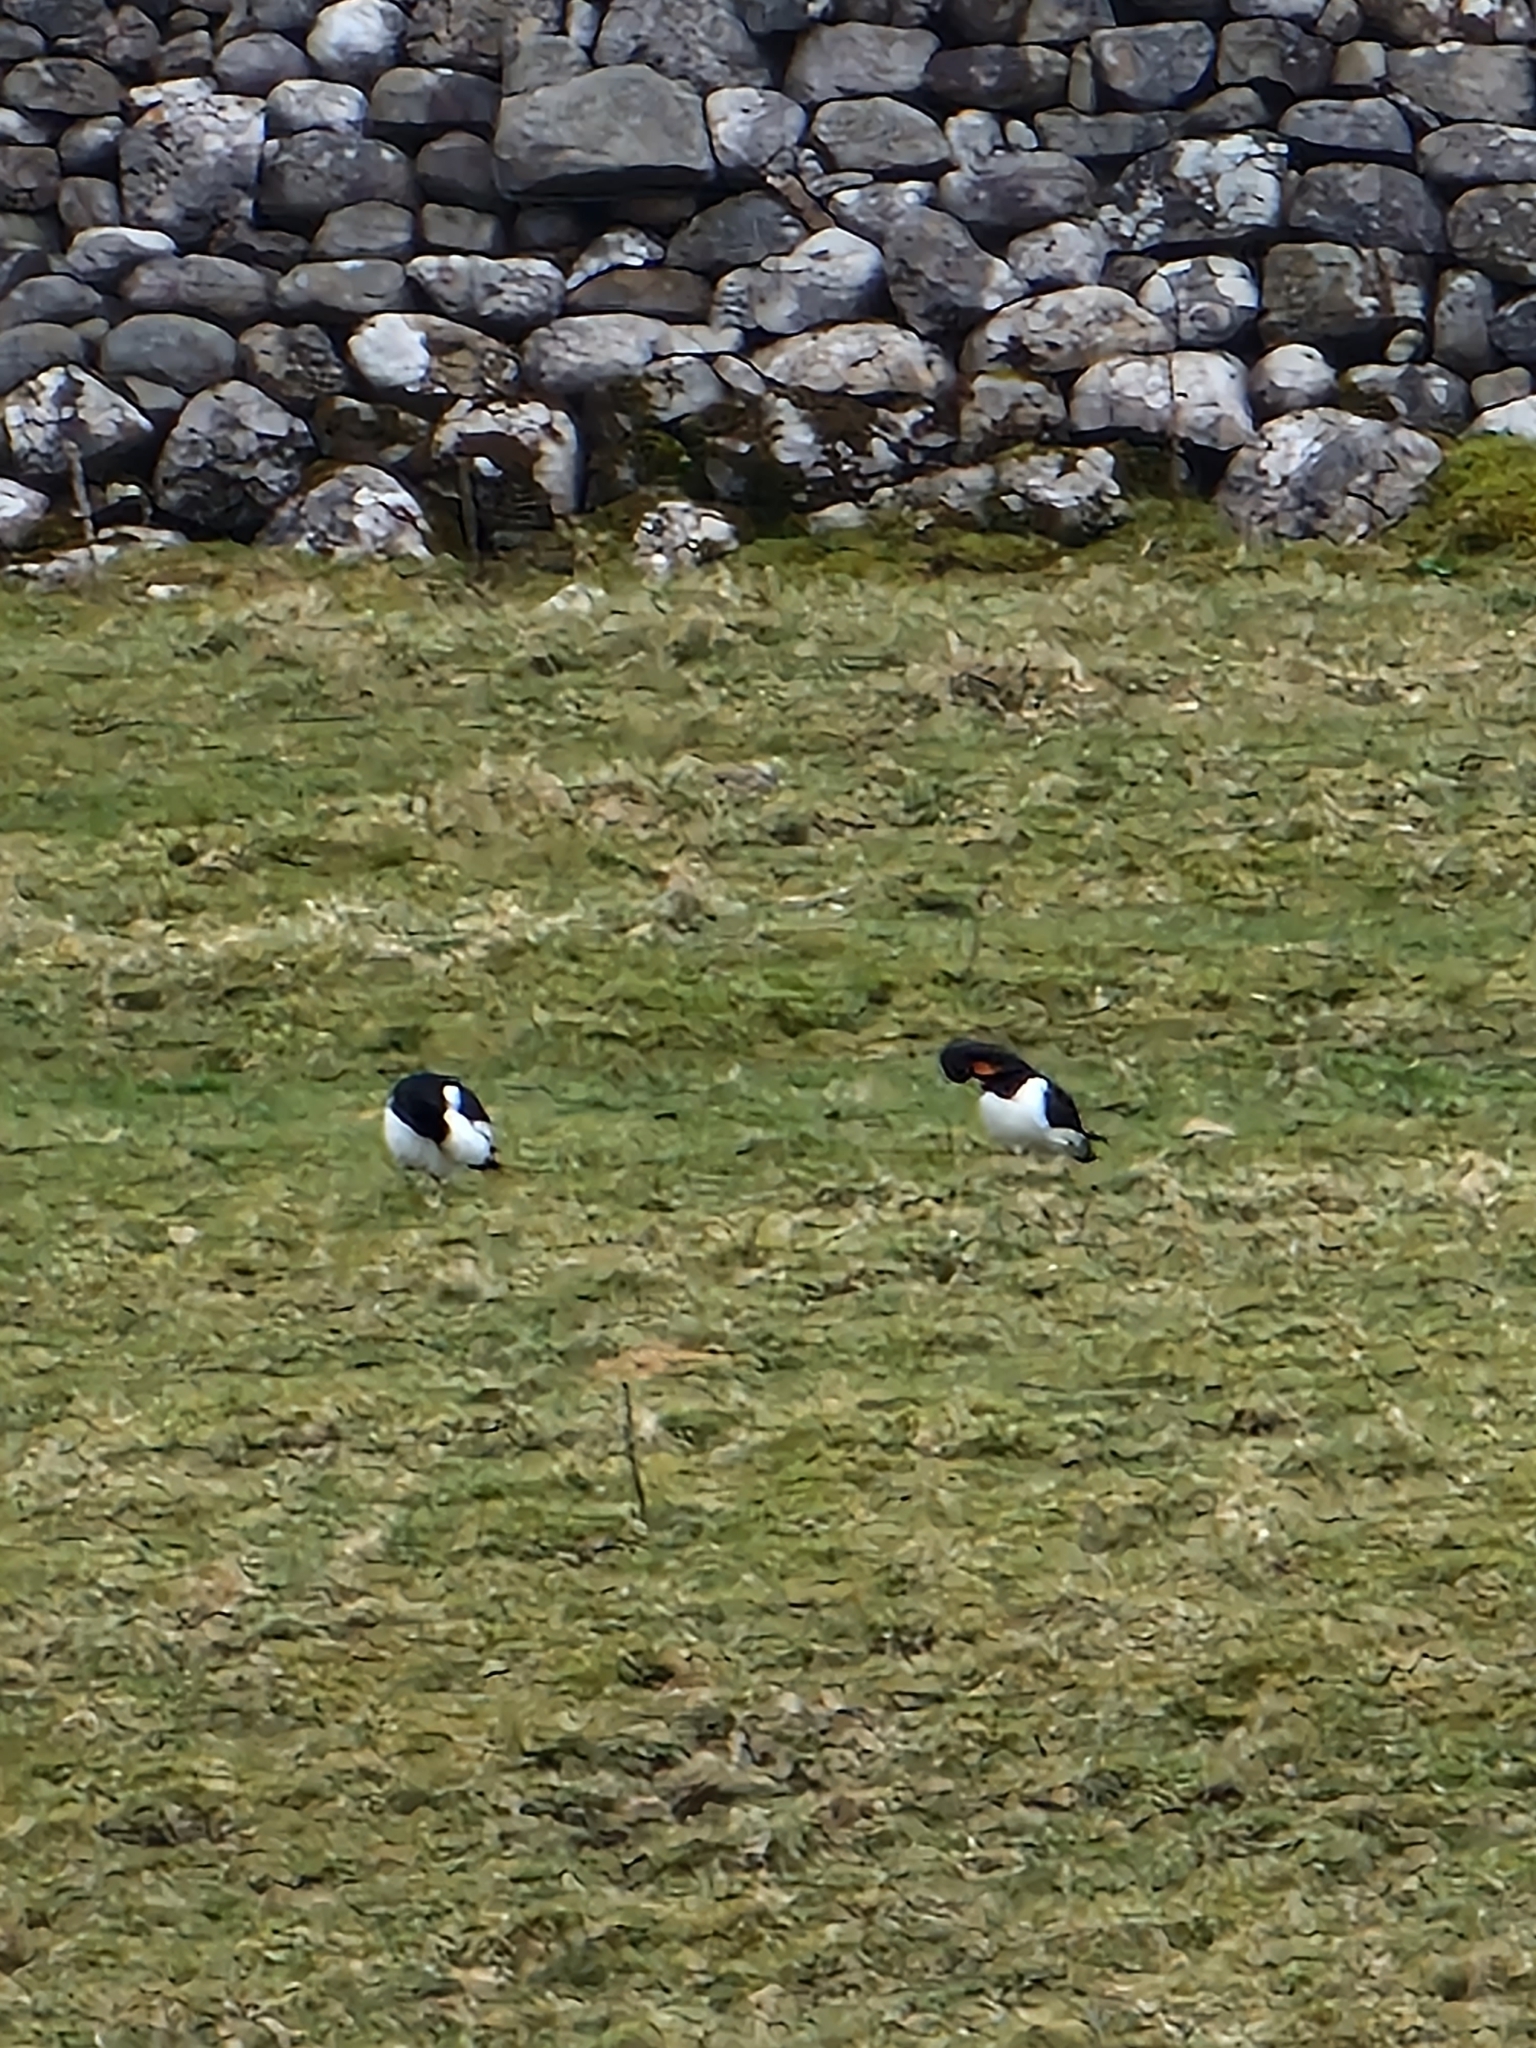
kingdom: Animalia
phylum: Chordata
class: Aves
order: Charadriiformes
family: Haematopodidae
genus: Haematopus
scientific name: Haematopus ostralegus
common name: Eurasian oystercatcher
